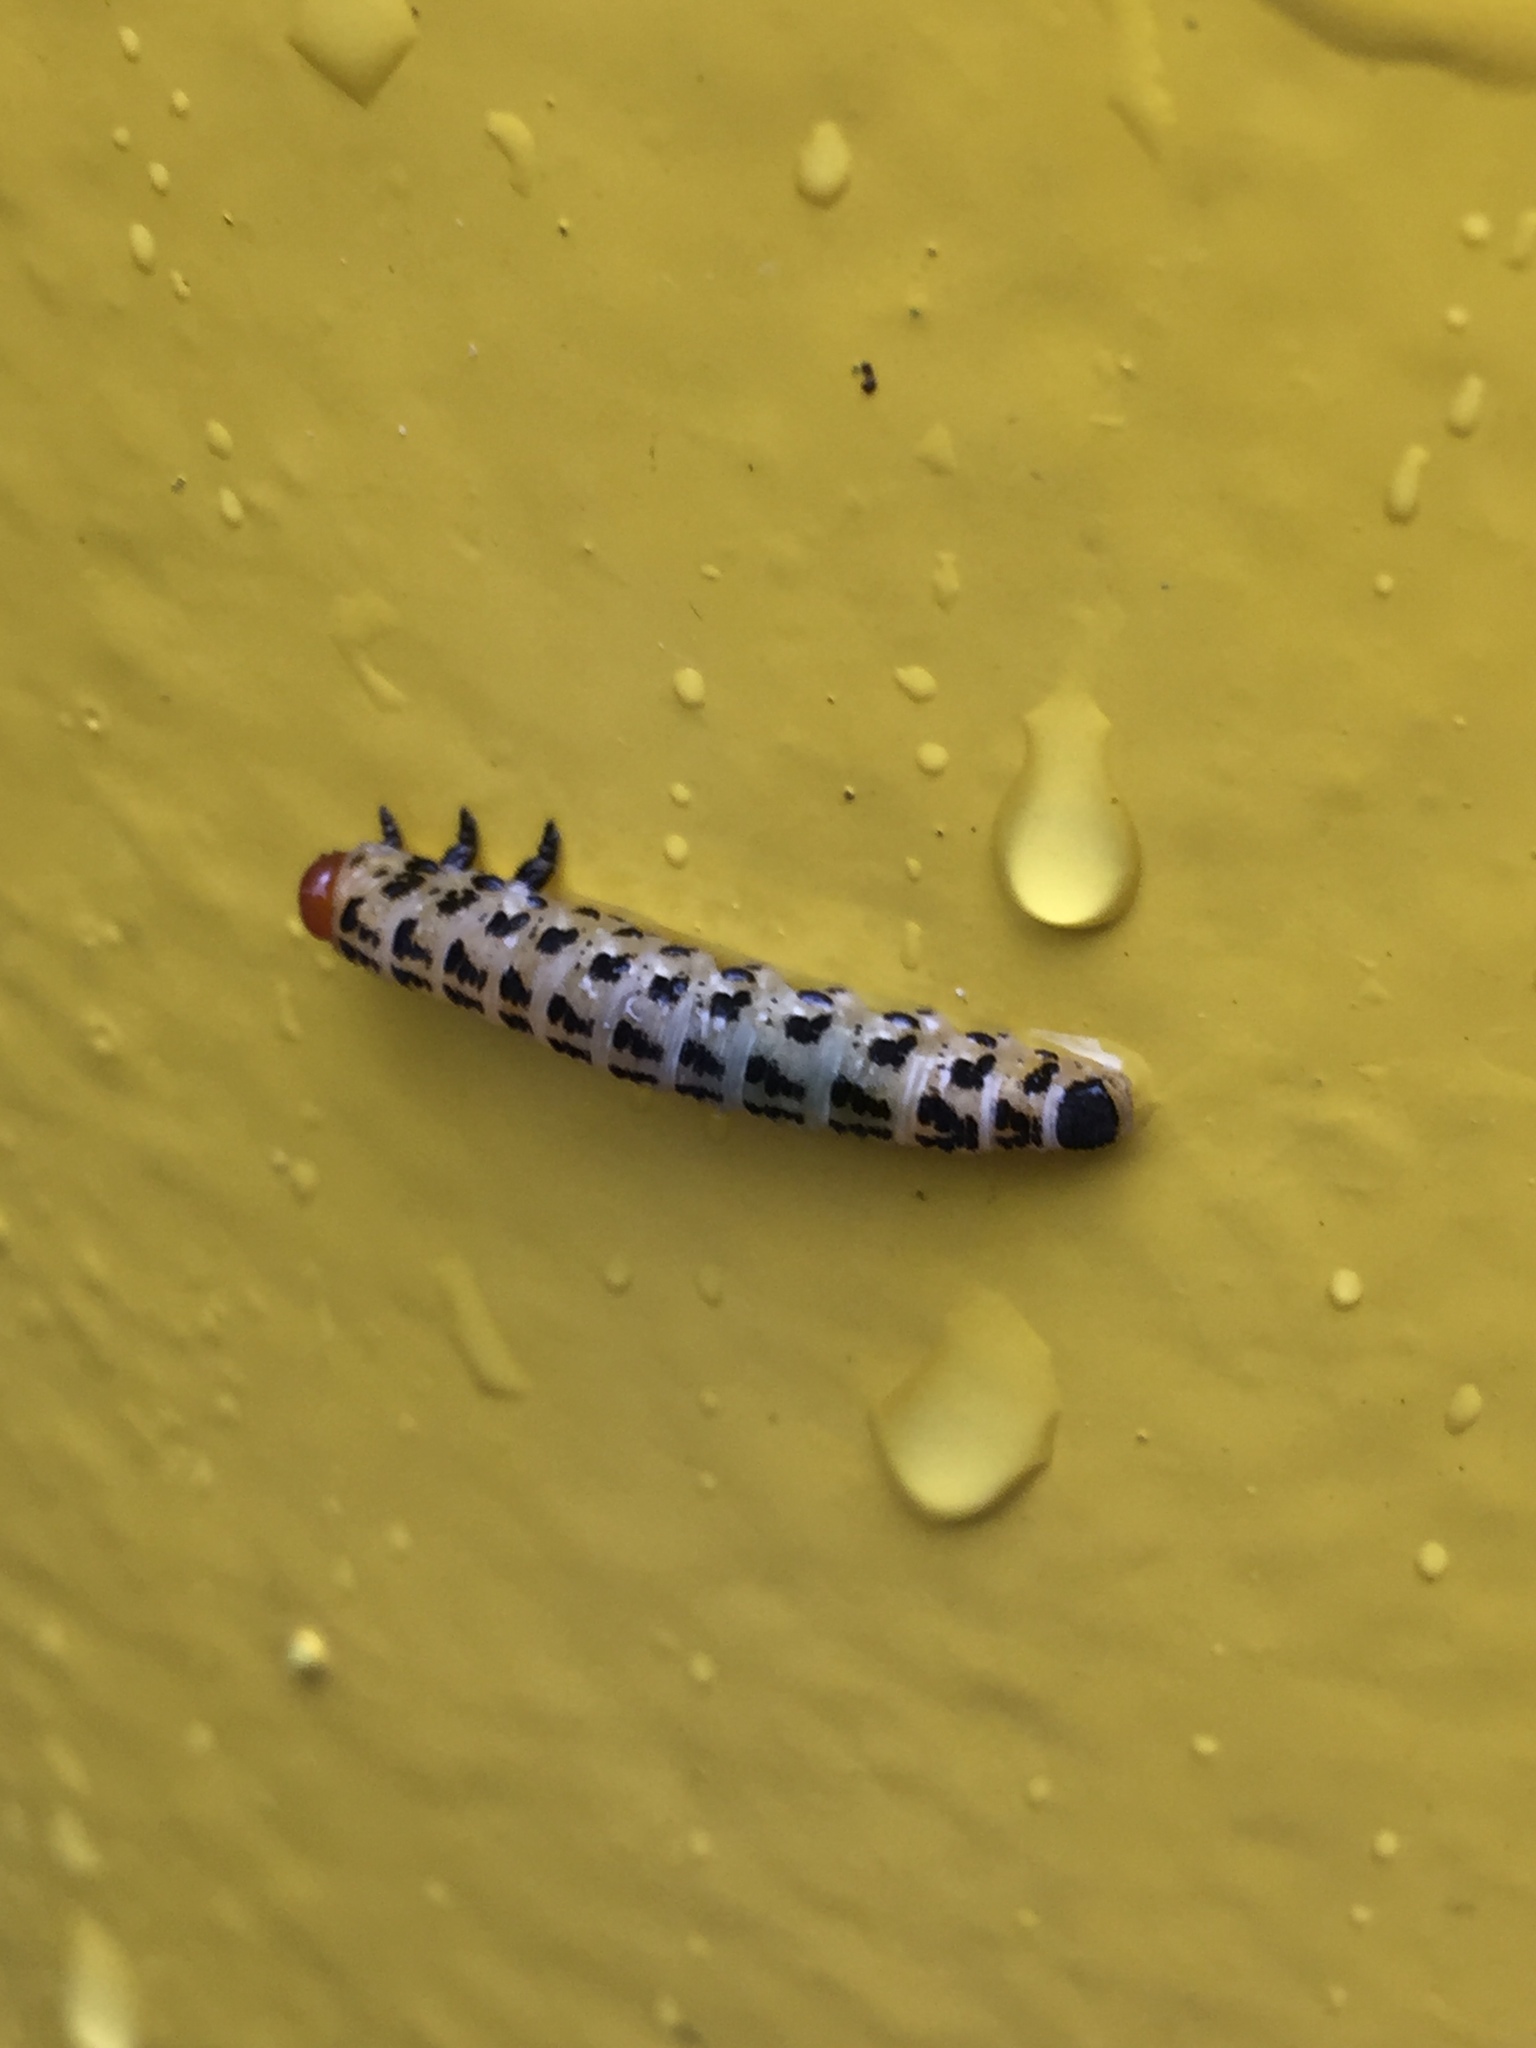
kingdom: Animalia
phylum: Arthropoda
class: Insecta
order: Hymenoptera
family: Diprionidae
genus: Neodiprion
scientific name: Neodiprion lecontei
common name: Redheaded pine sawfly
